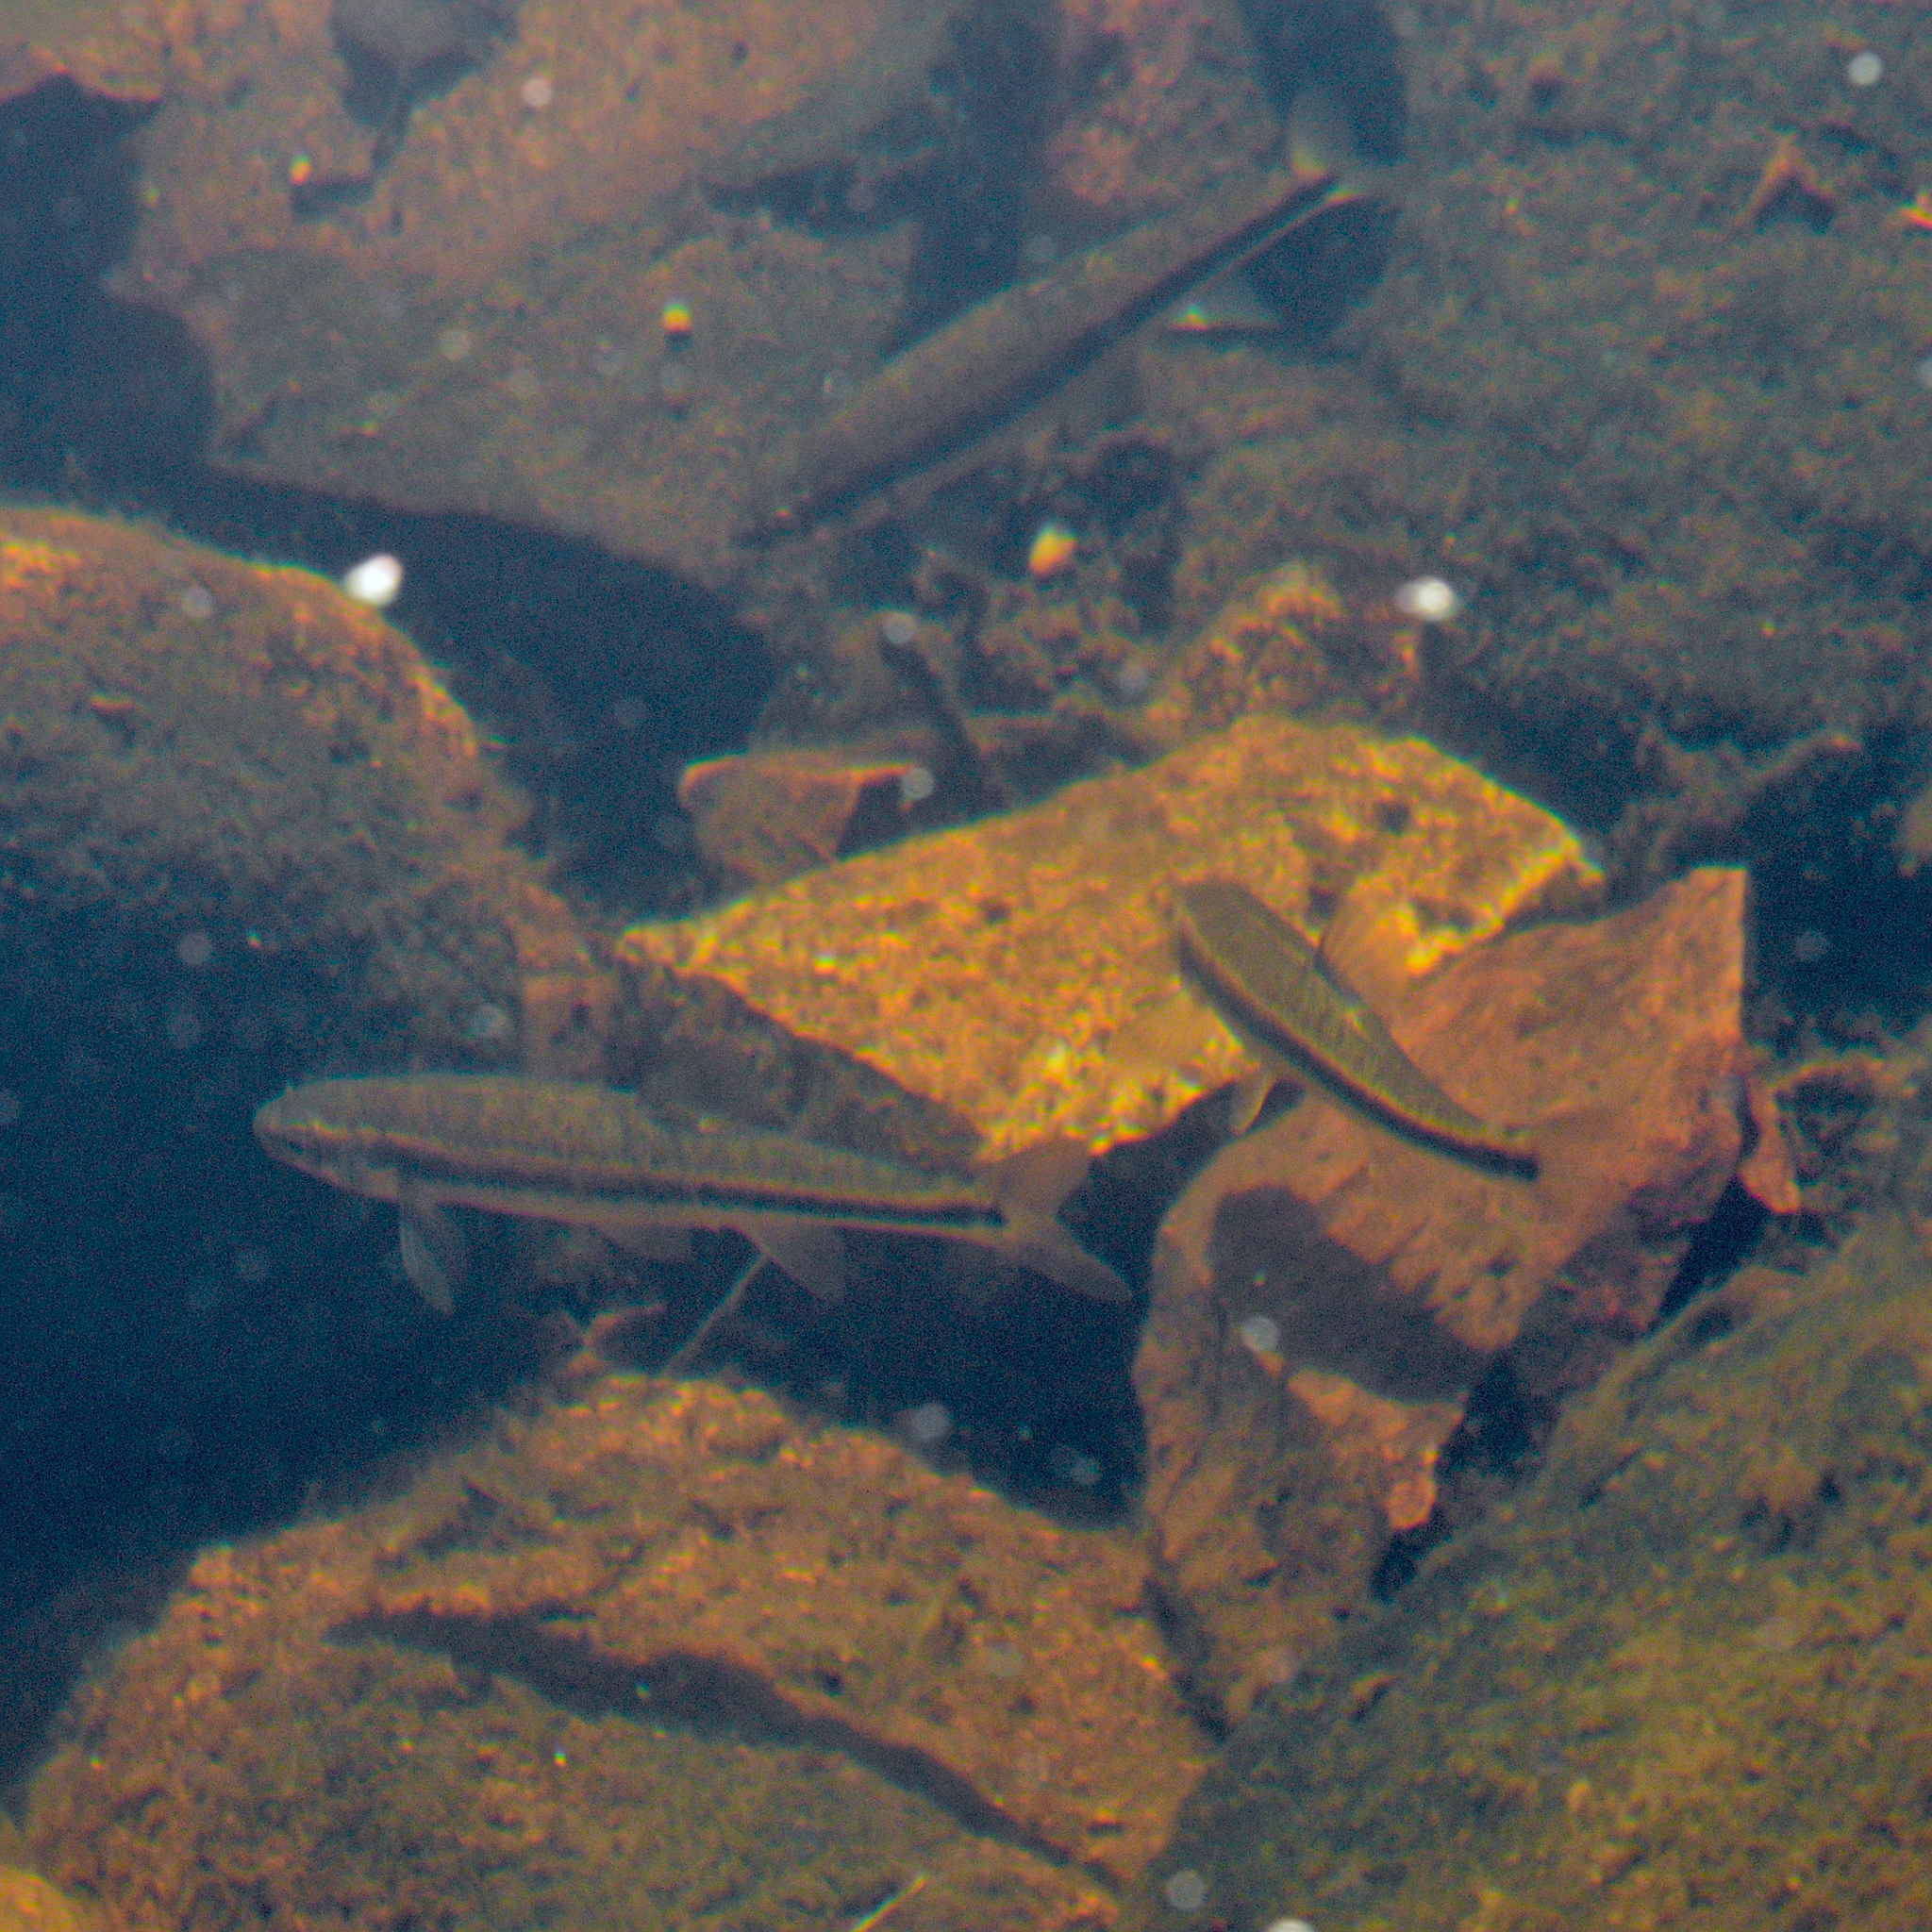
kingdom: Animalia
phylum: Chordata
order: Cypriniformes
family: Cyprinidae
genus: Phoxinus
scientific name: Phoxinus phoxinus
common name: Minnow
